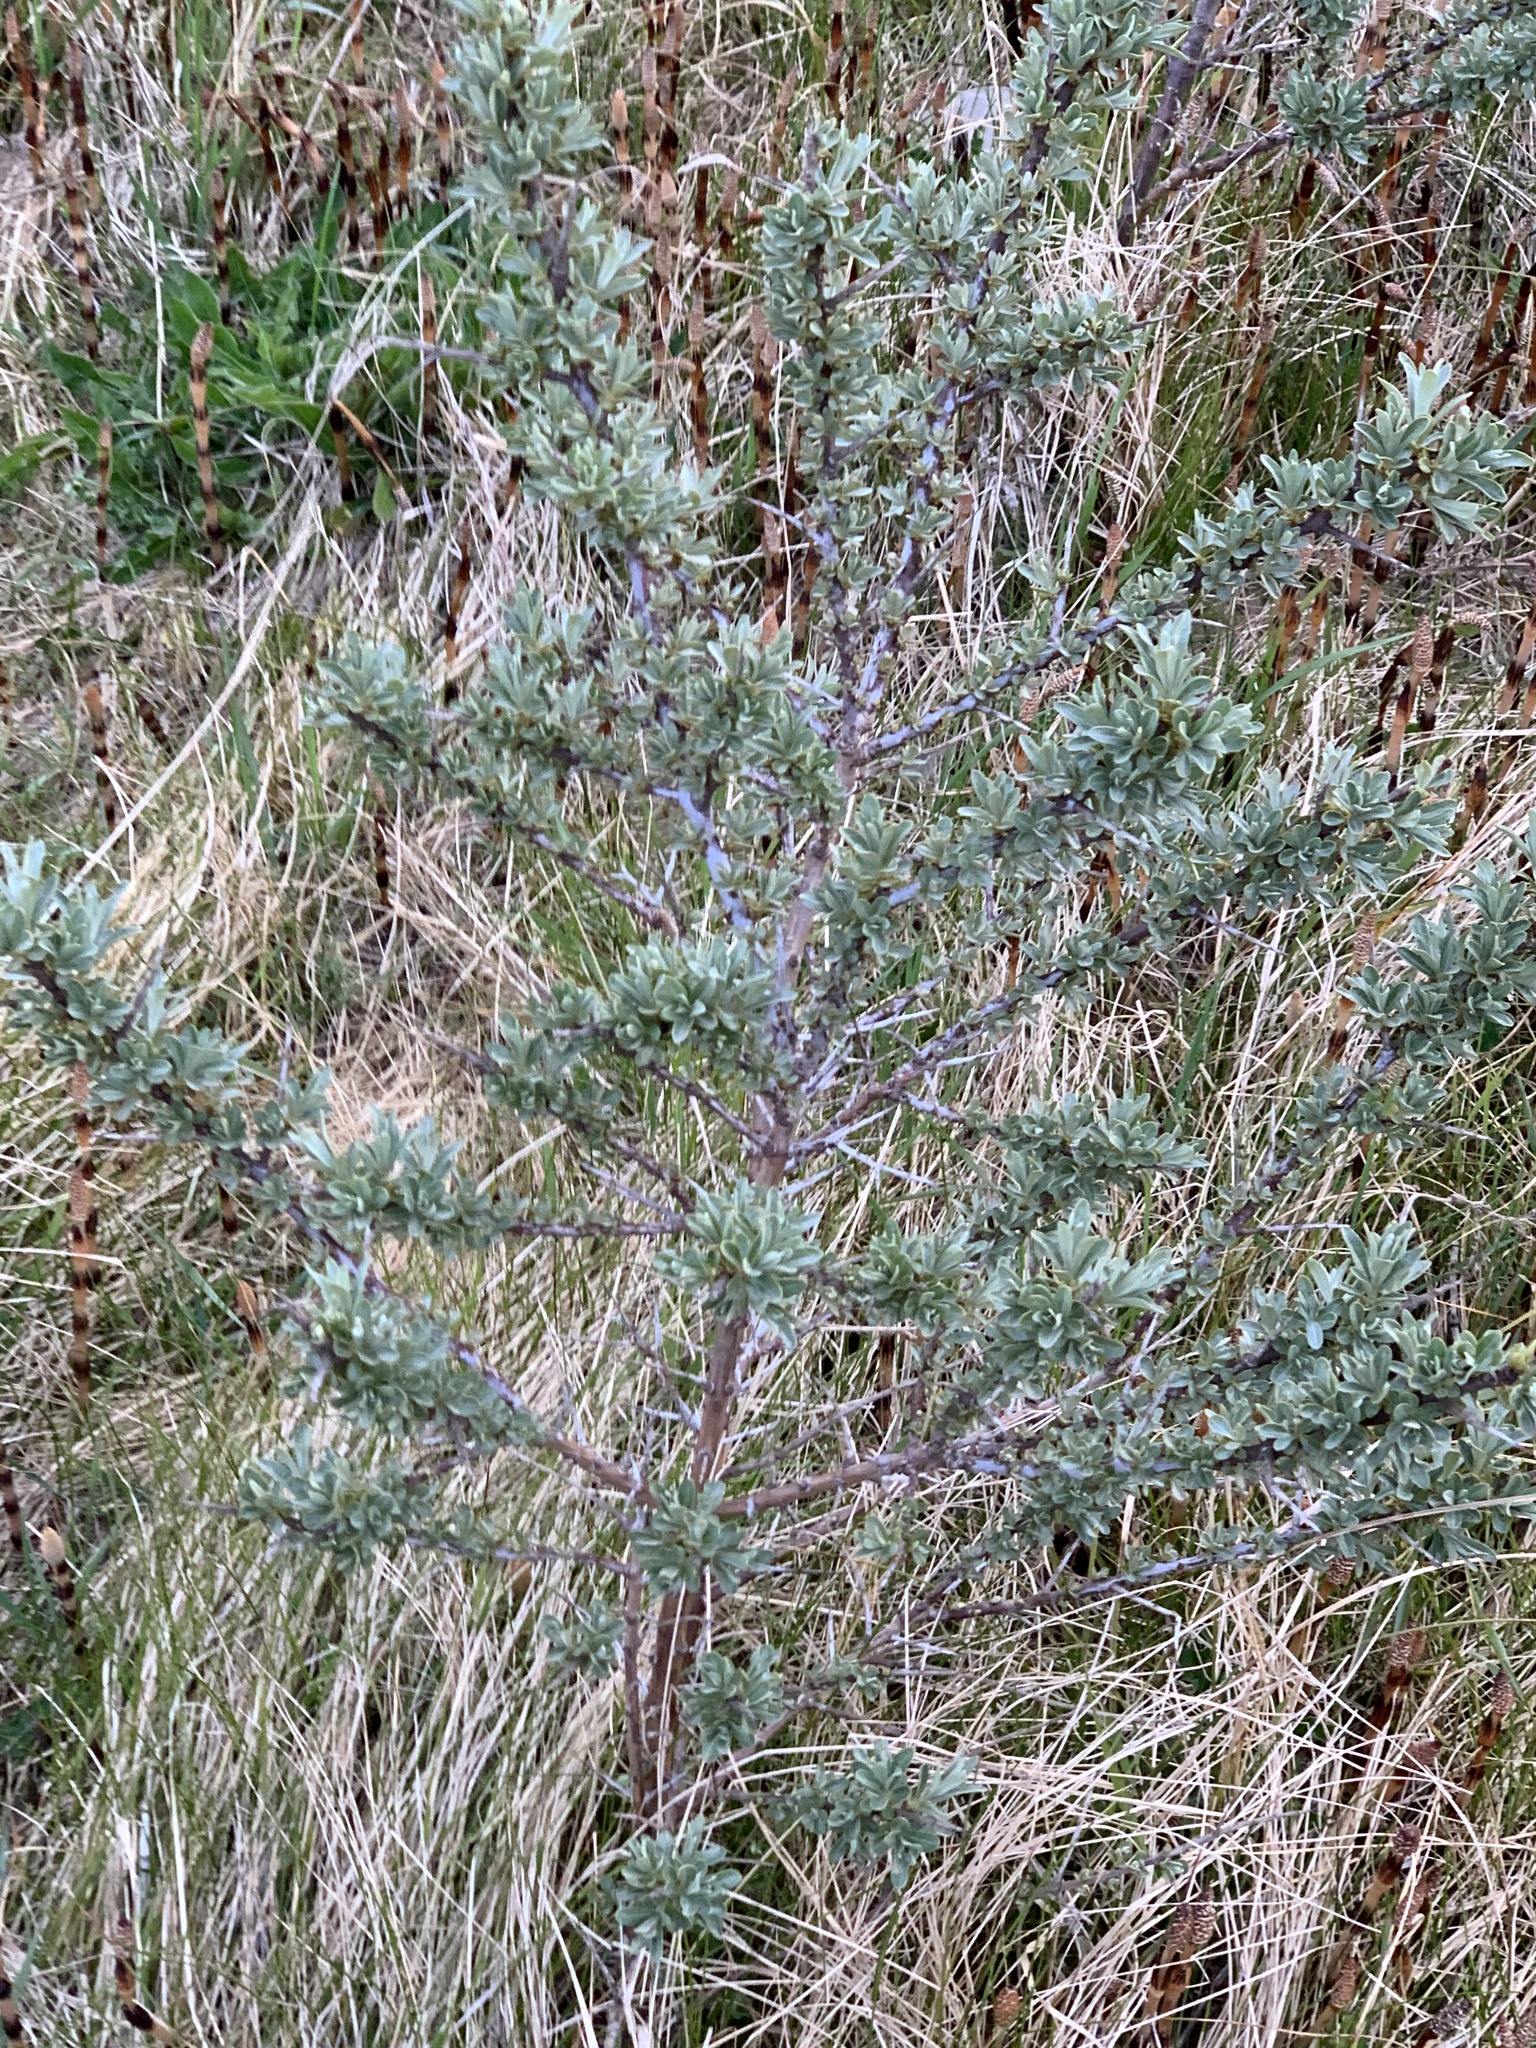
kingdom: Plantae
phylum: Tracheophyta
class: Magnoliopsida
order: Rosales
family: Elaeagnaceae
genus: Hippophae
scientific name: Hippophae rhamnoides
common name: Sea-buckthorn
